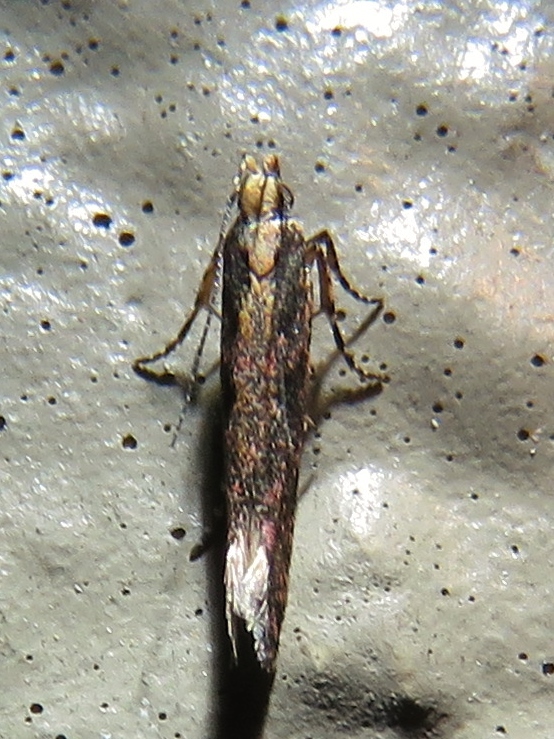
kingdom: Animalia
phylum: Arthropoda
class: Insecta
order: Lepidoptera
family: Gelechiidae
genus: Aristotelia
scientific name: Aristotelia roseosuffusella
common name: Pink-washed aristotelia moth
